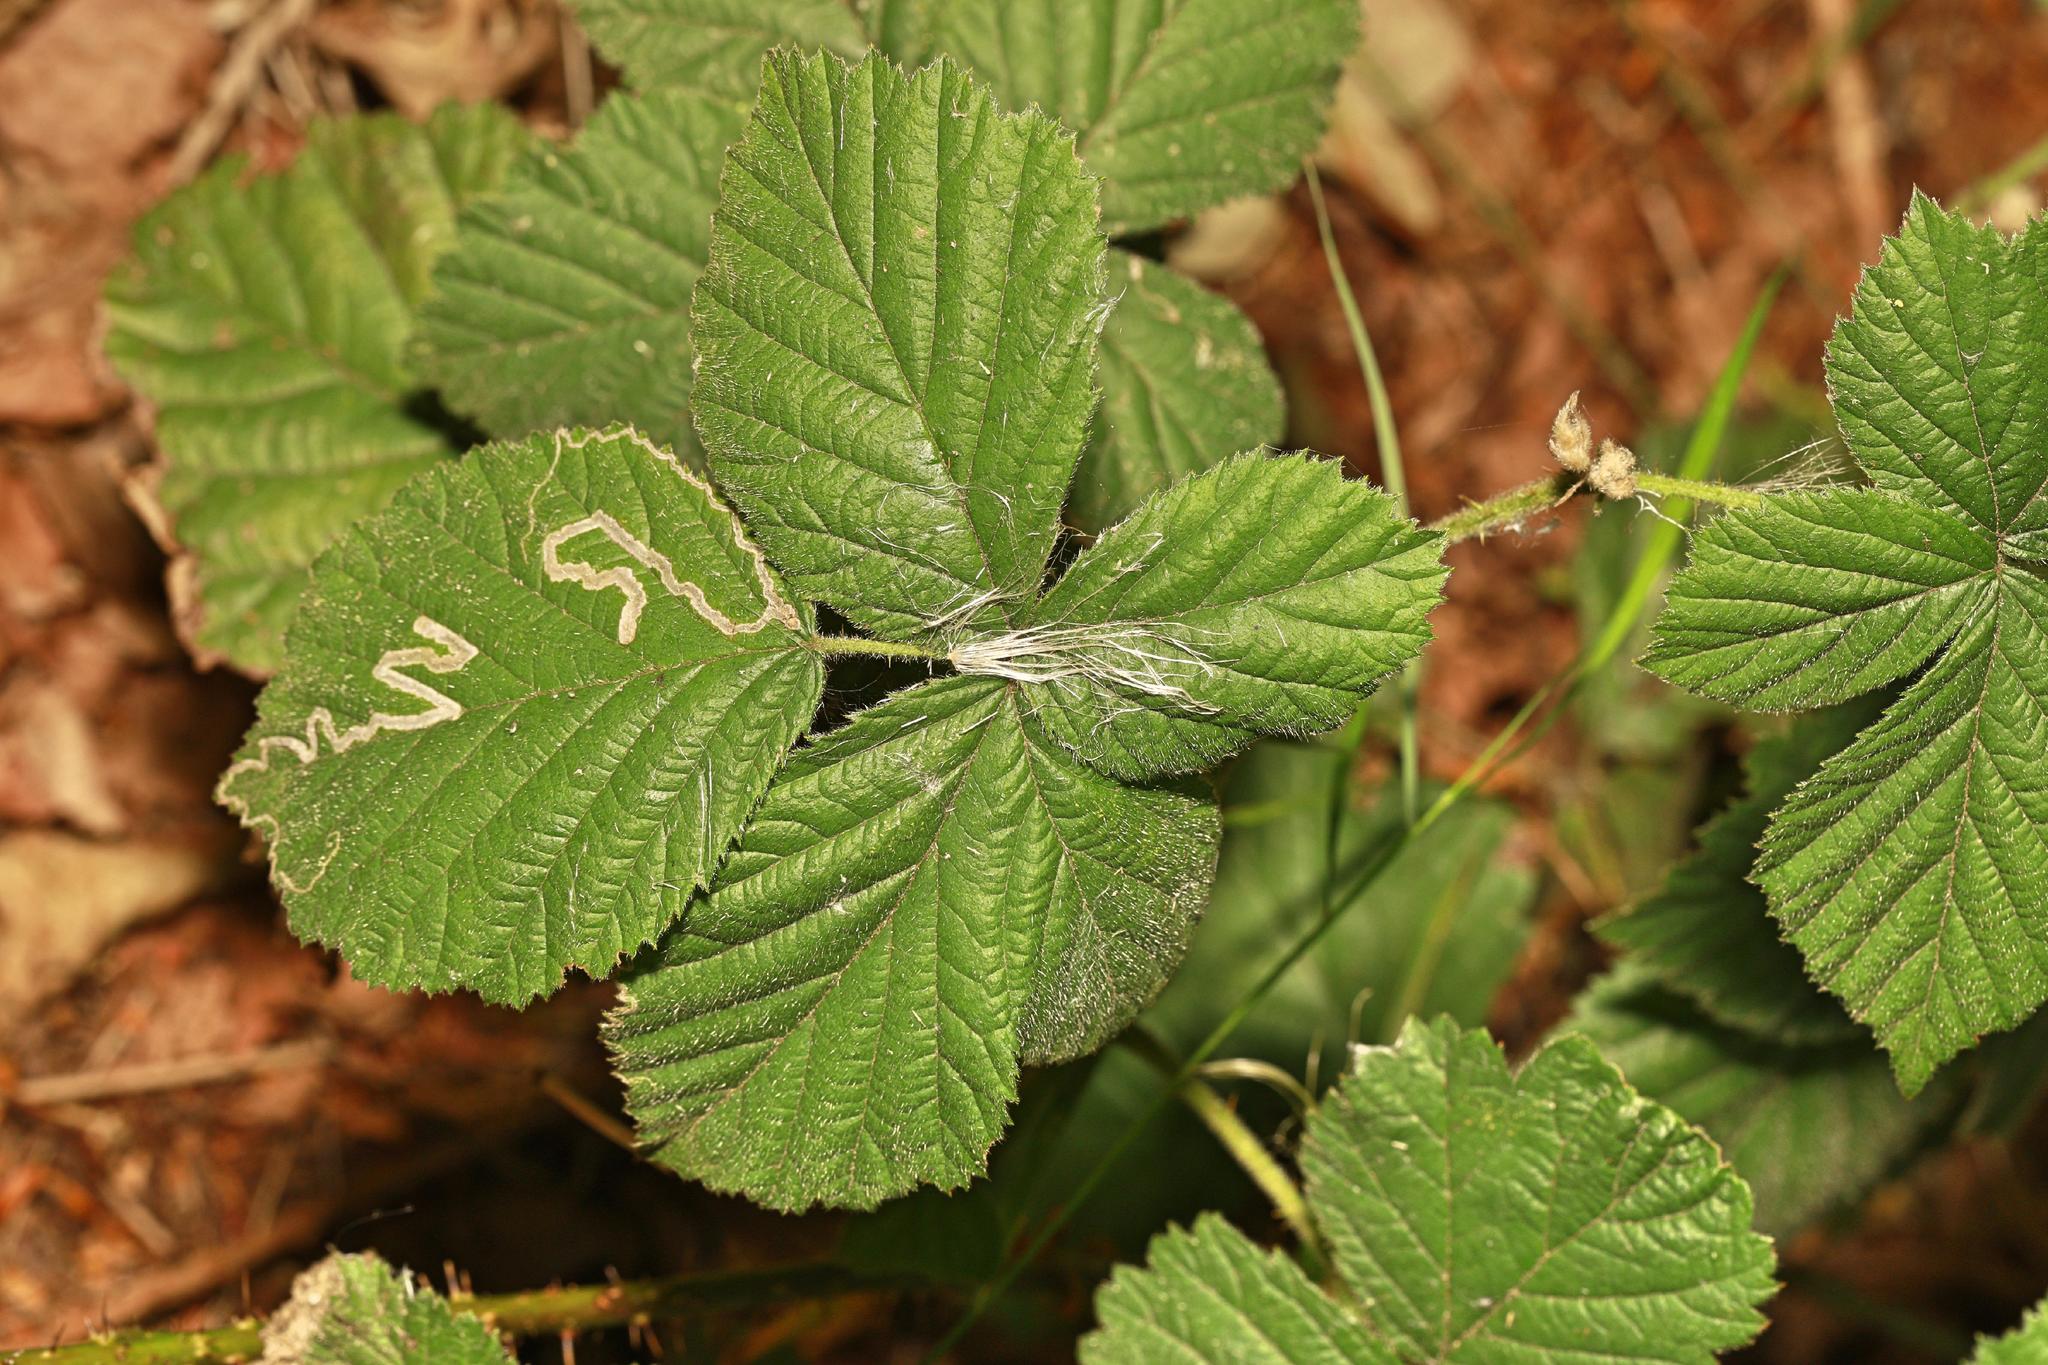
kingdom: Animalia
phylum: Arthropoda
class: Insecta
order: Lepidoptera
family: Nepticulidae
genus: Stigmella
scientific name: Stigmella aurella
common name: Golden pigmy
